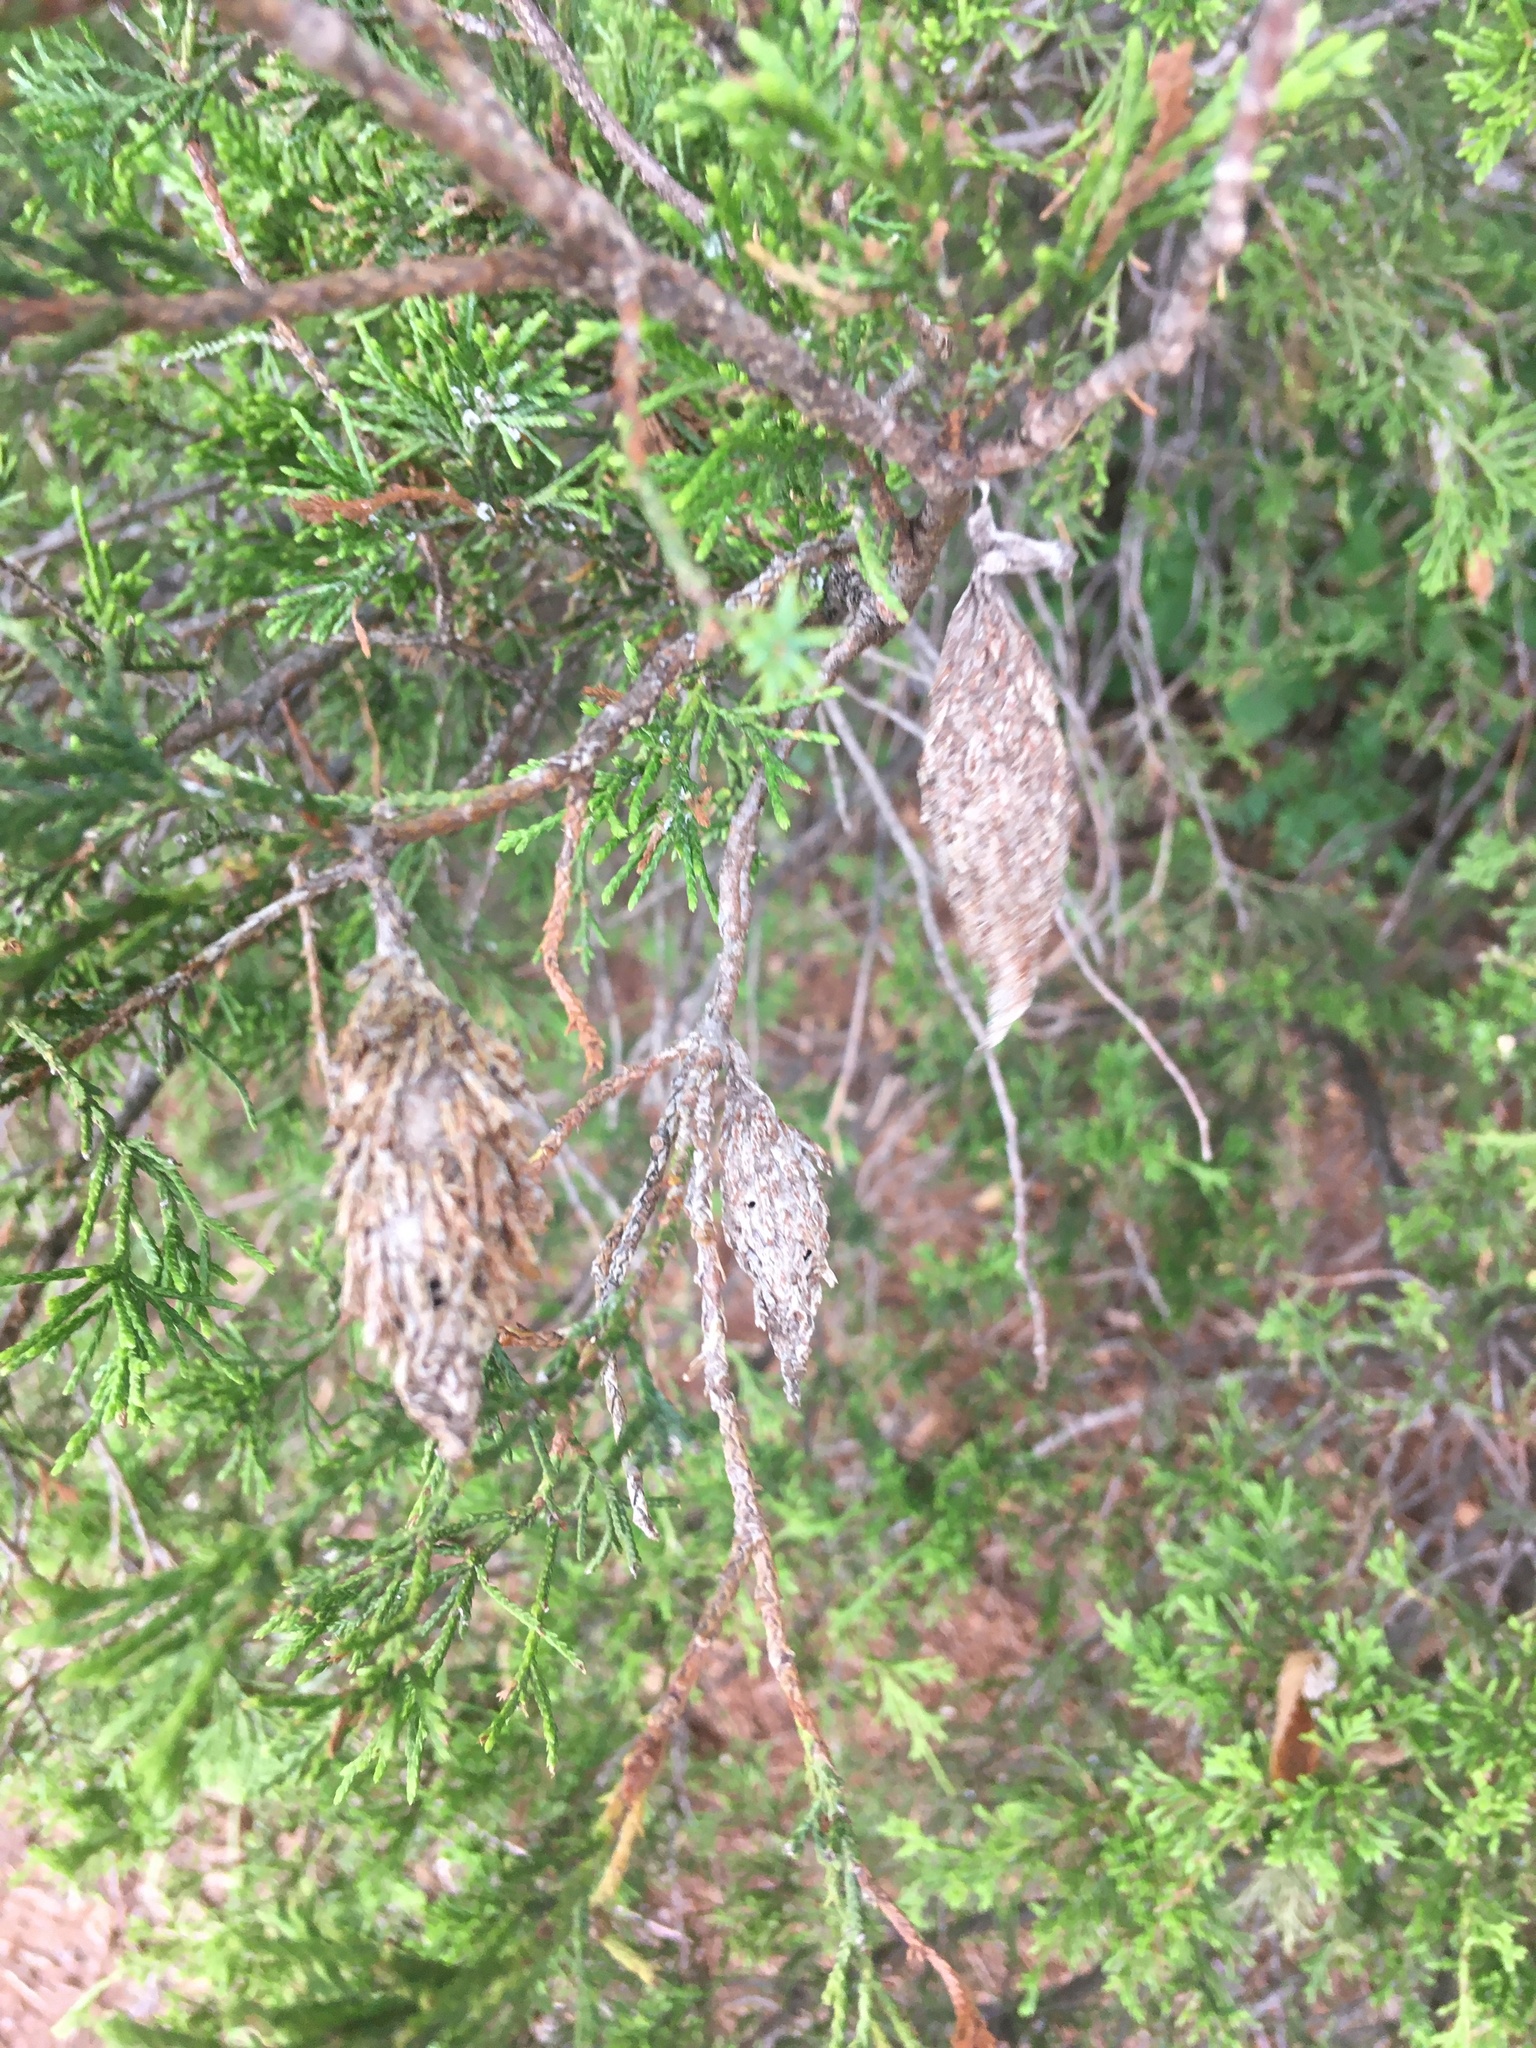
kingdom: Animalia
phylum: Arthropoda
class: Insecta
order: Lepidoptera
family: Psychidae
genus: Thyridopteryx
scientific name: Thyridopteryx ephemeraeformis
